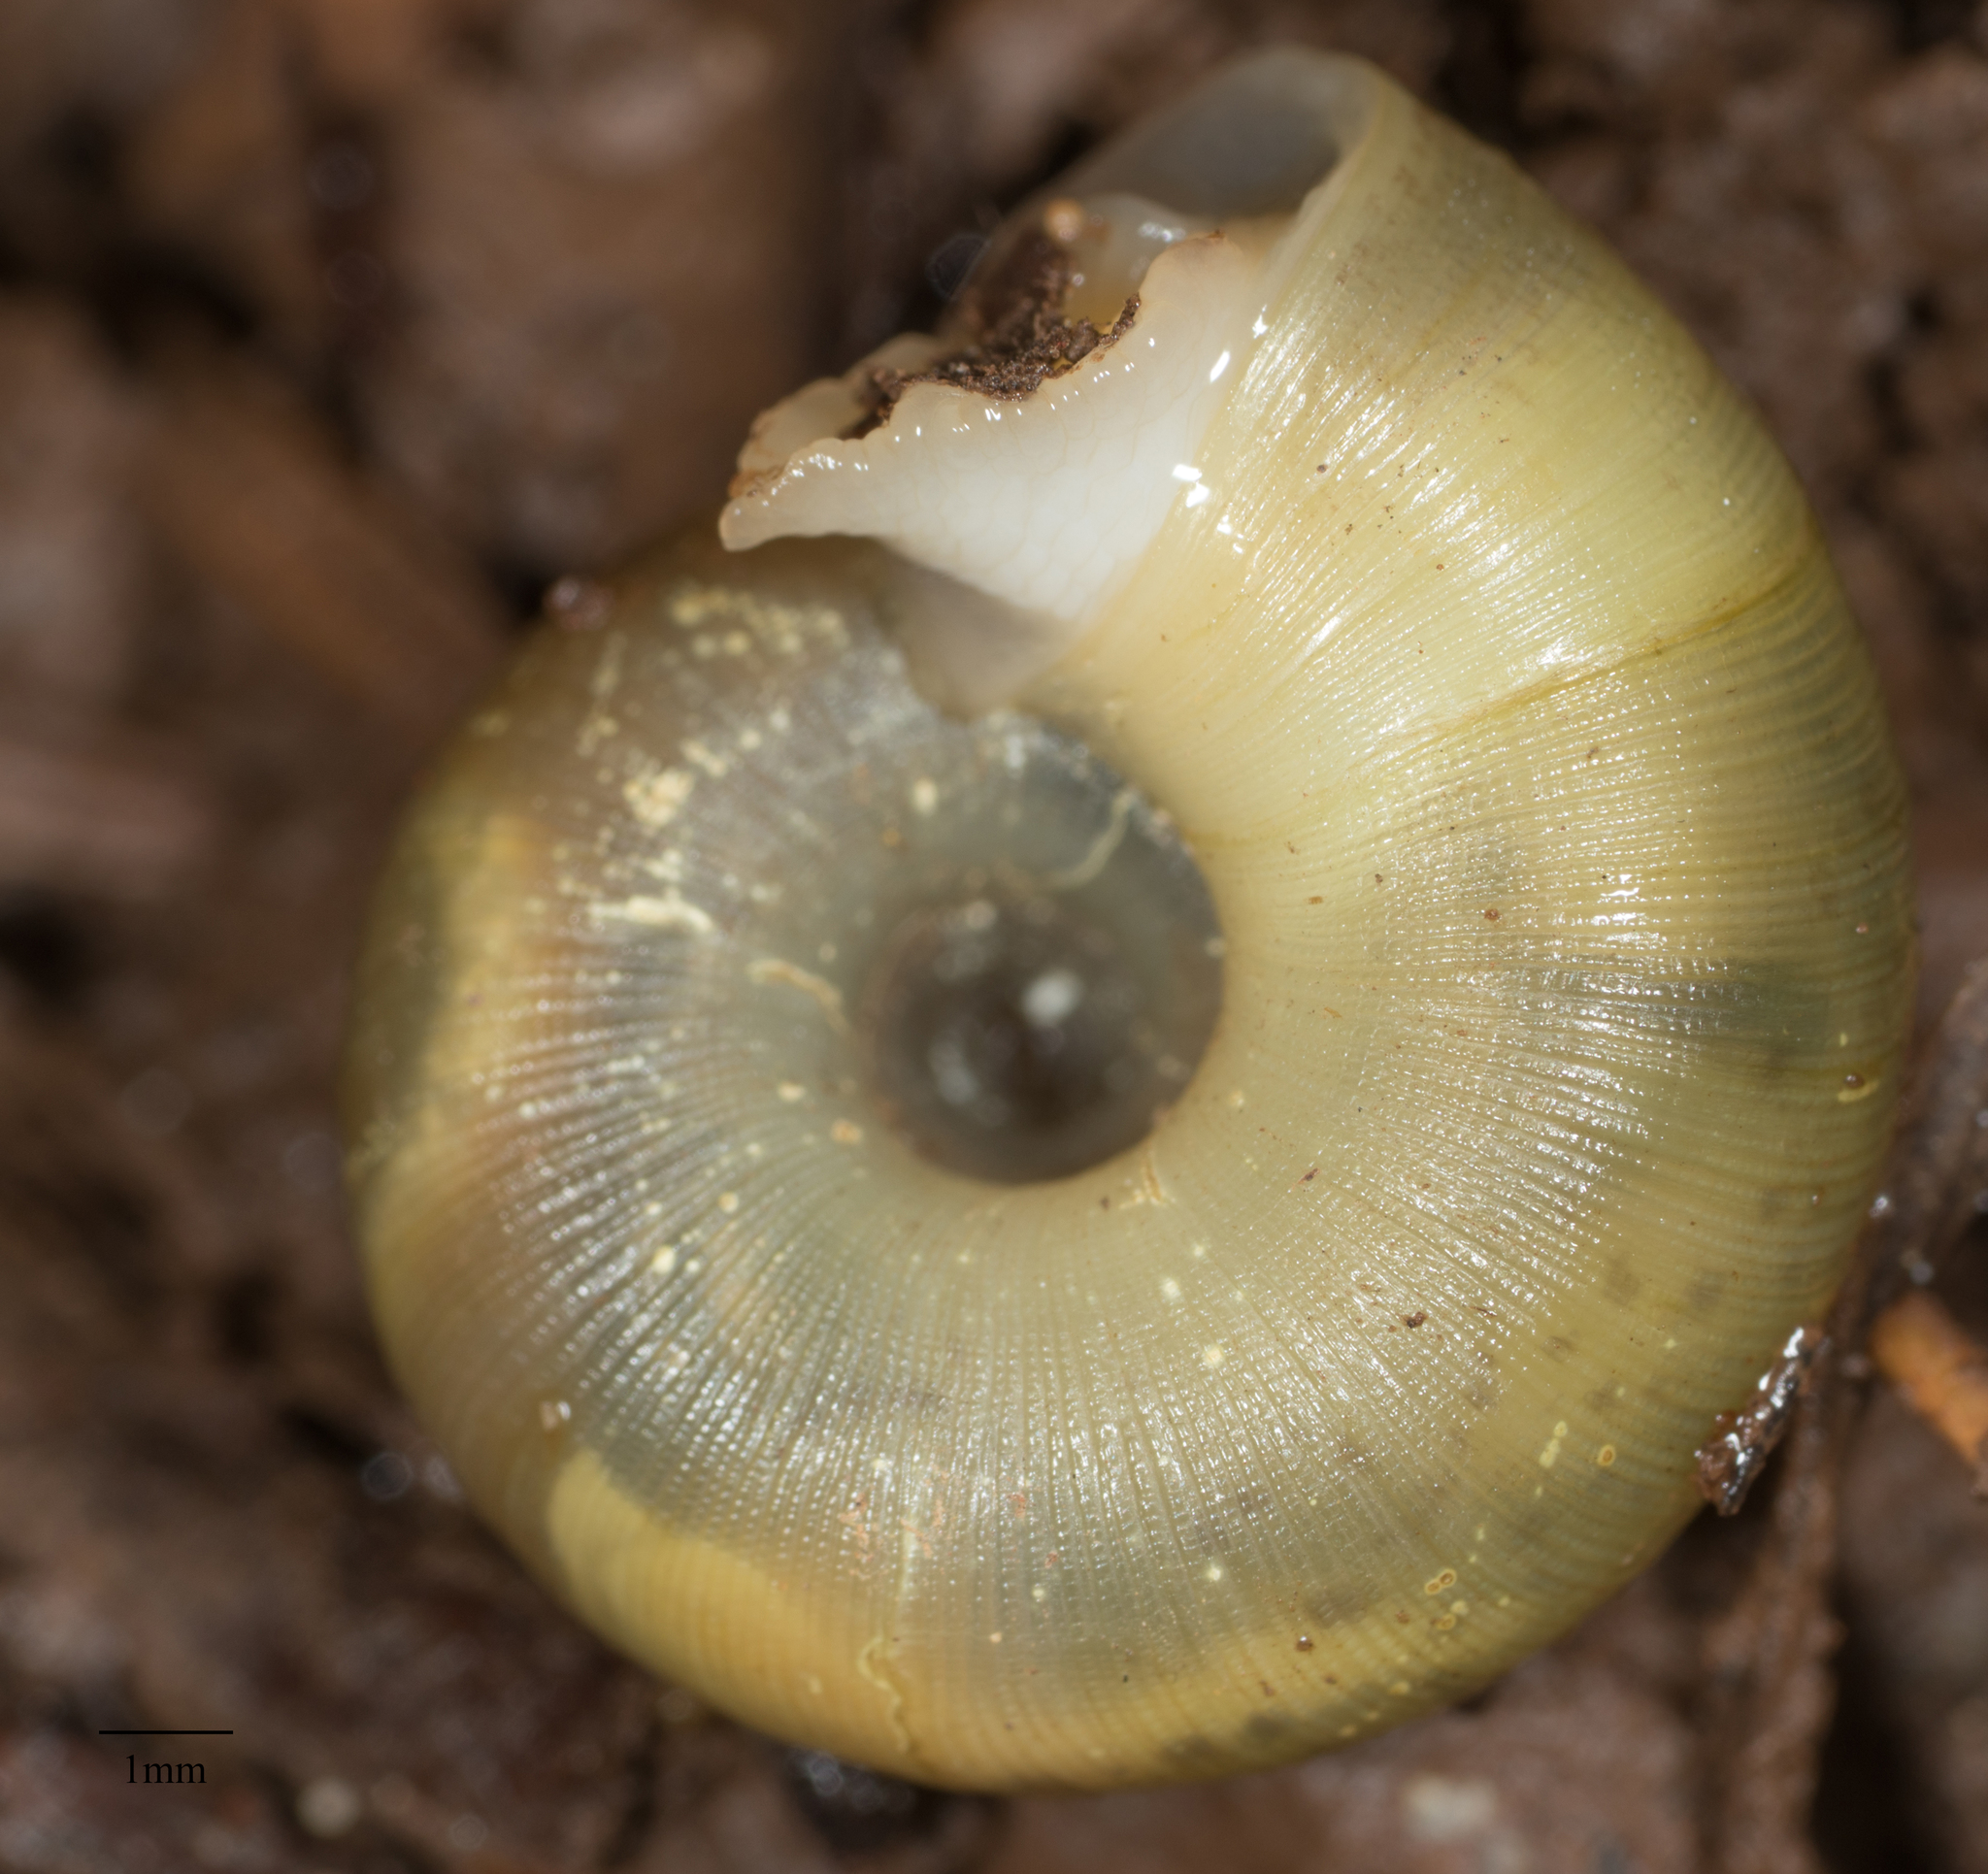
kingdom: Animalia
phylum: Mollusca
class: Gastropoda
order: Stylommatophora
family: Haplotrematidae
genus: Ancotrema
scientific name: Ancotrema sportella
